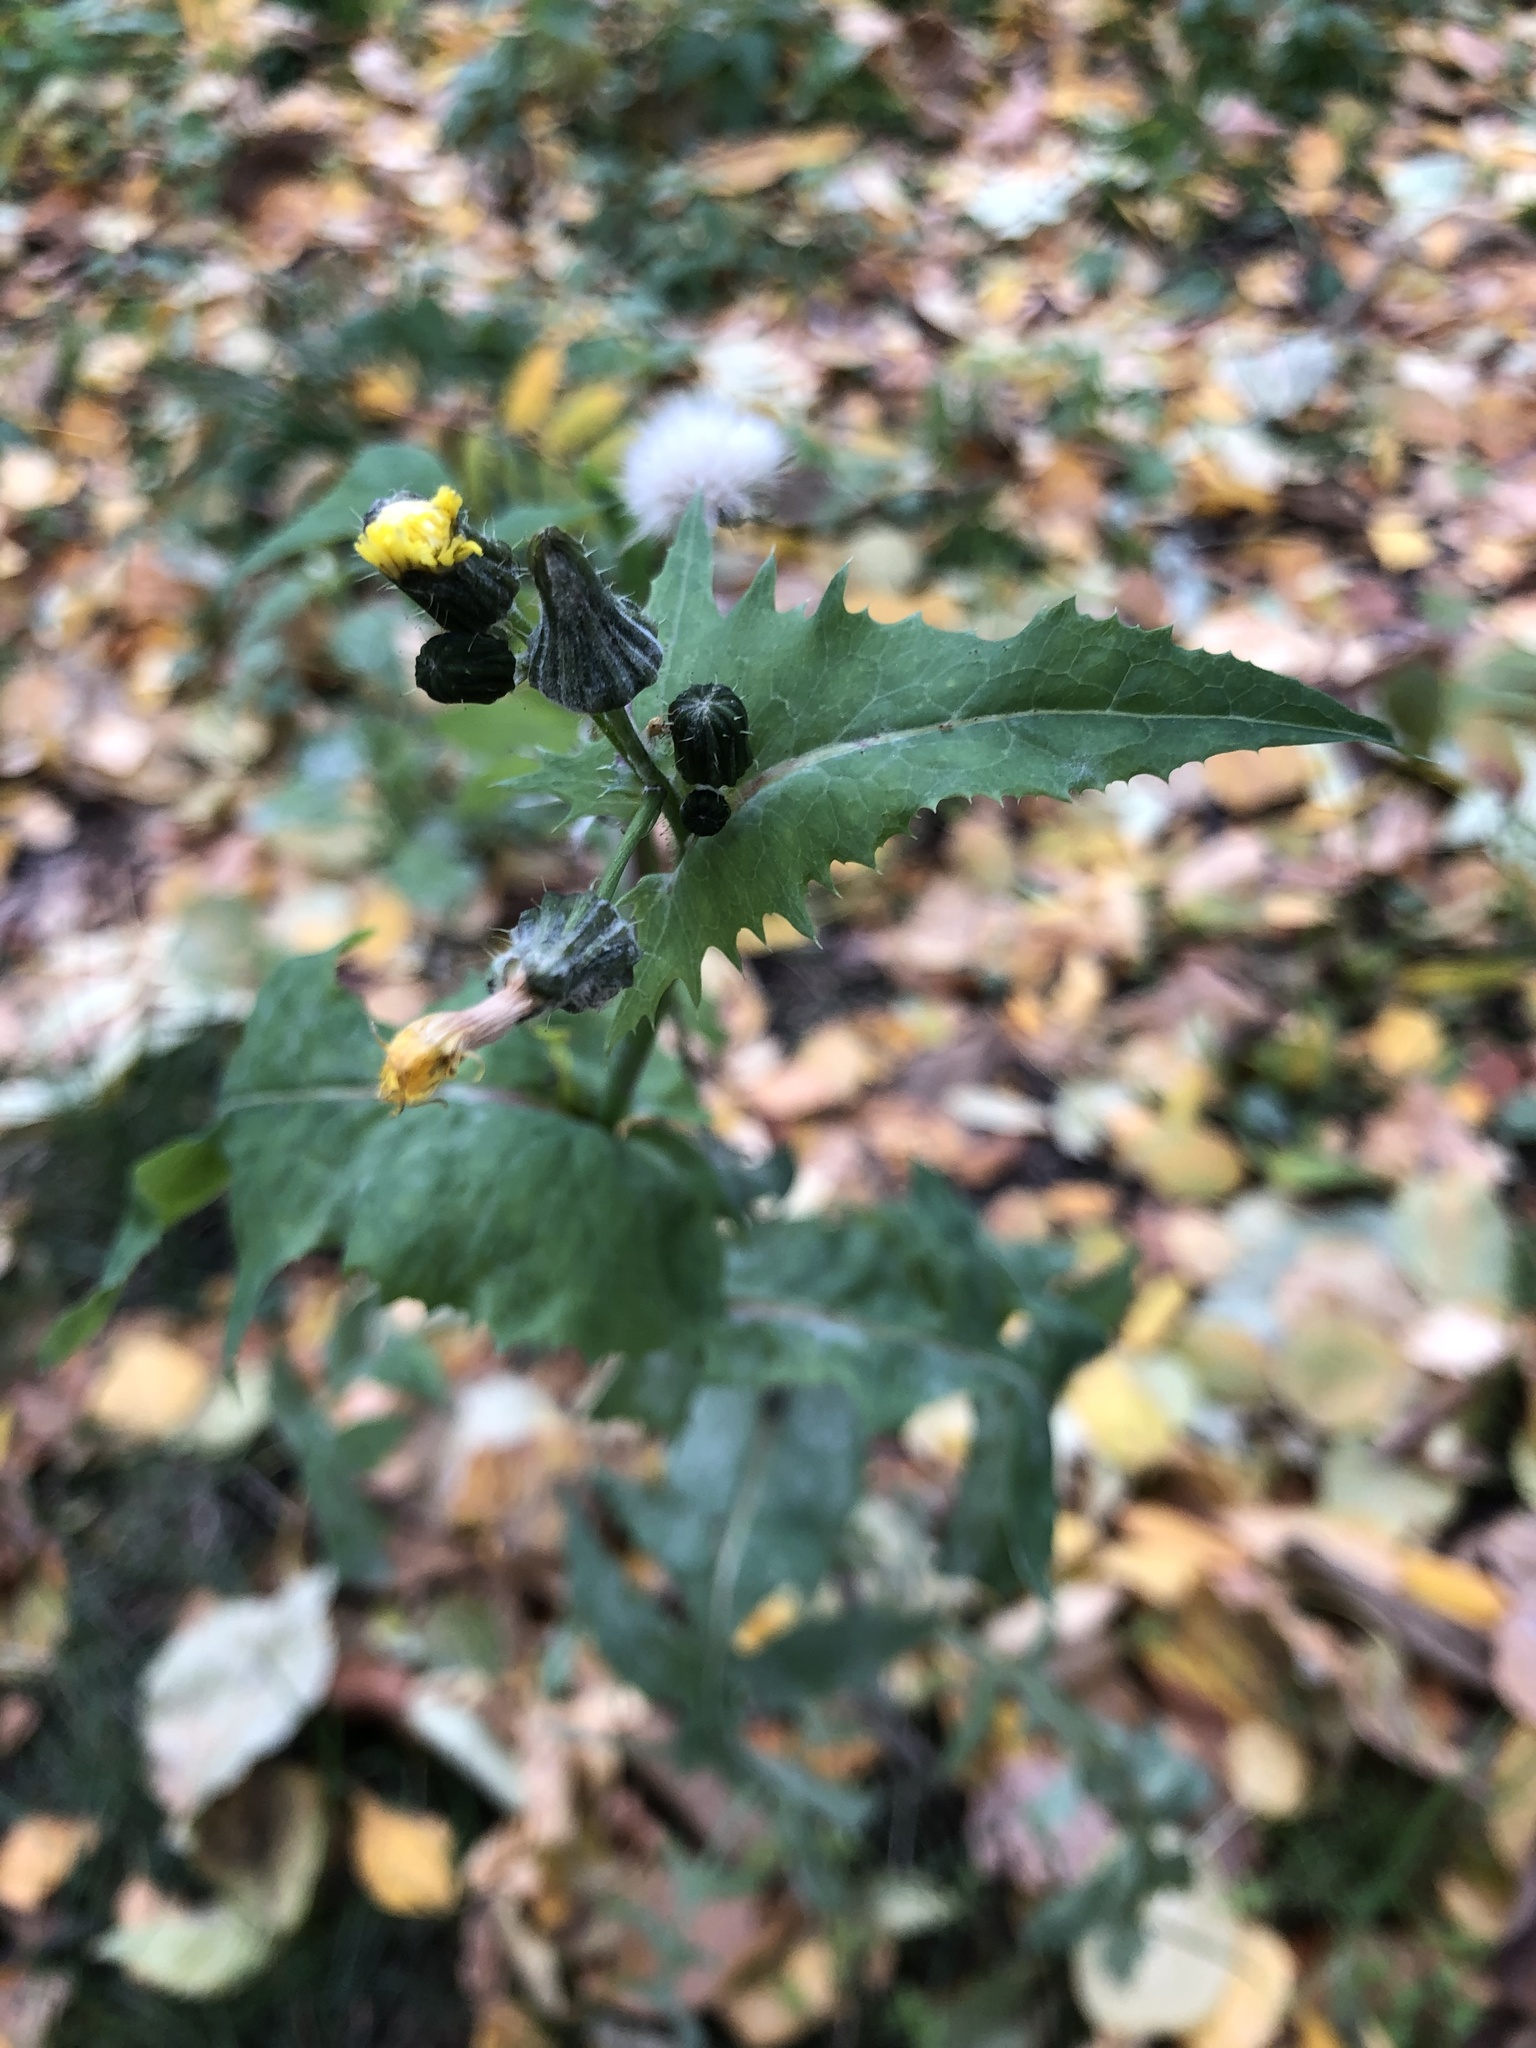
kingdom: Plantae
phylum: Tracheophyta
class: Magnoliopsida
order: Asterales
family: Asteraceae
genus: Sonchus
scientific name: Sonchus oleraceus
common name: Common sowthistle
